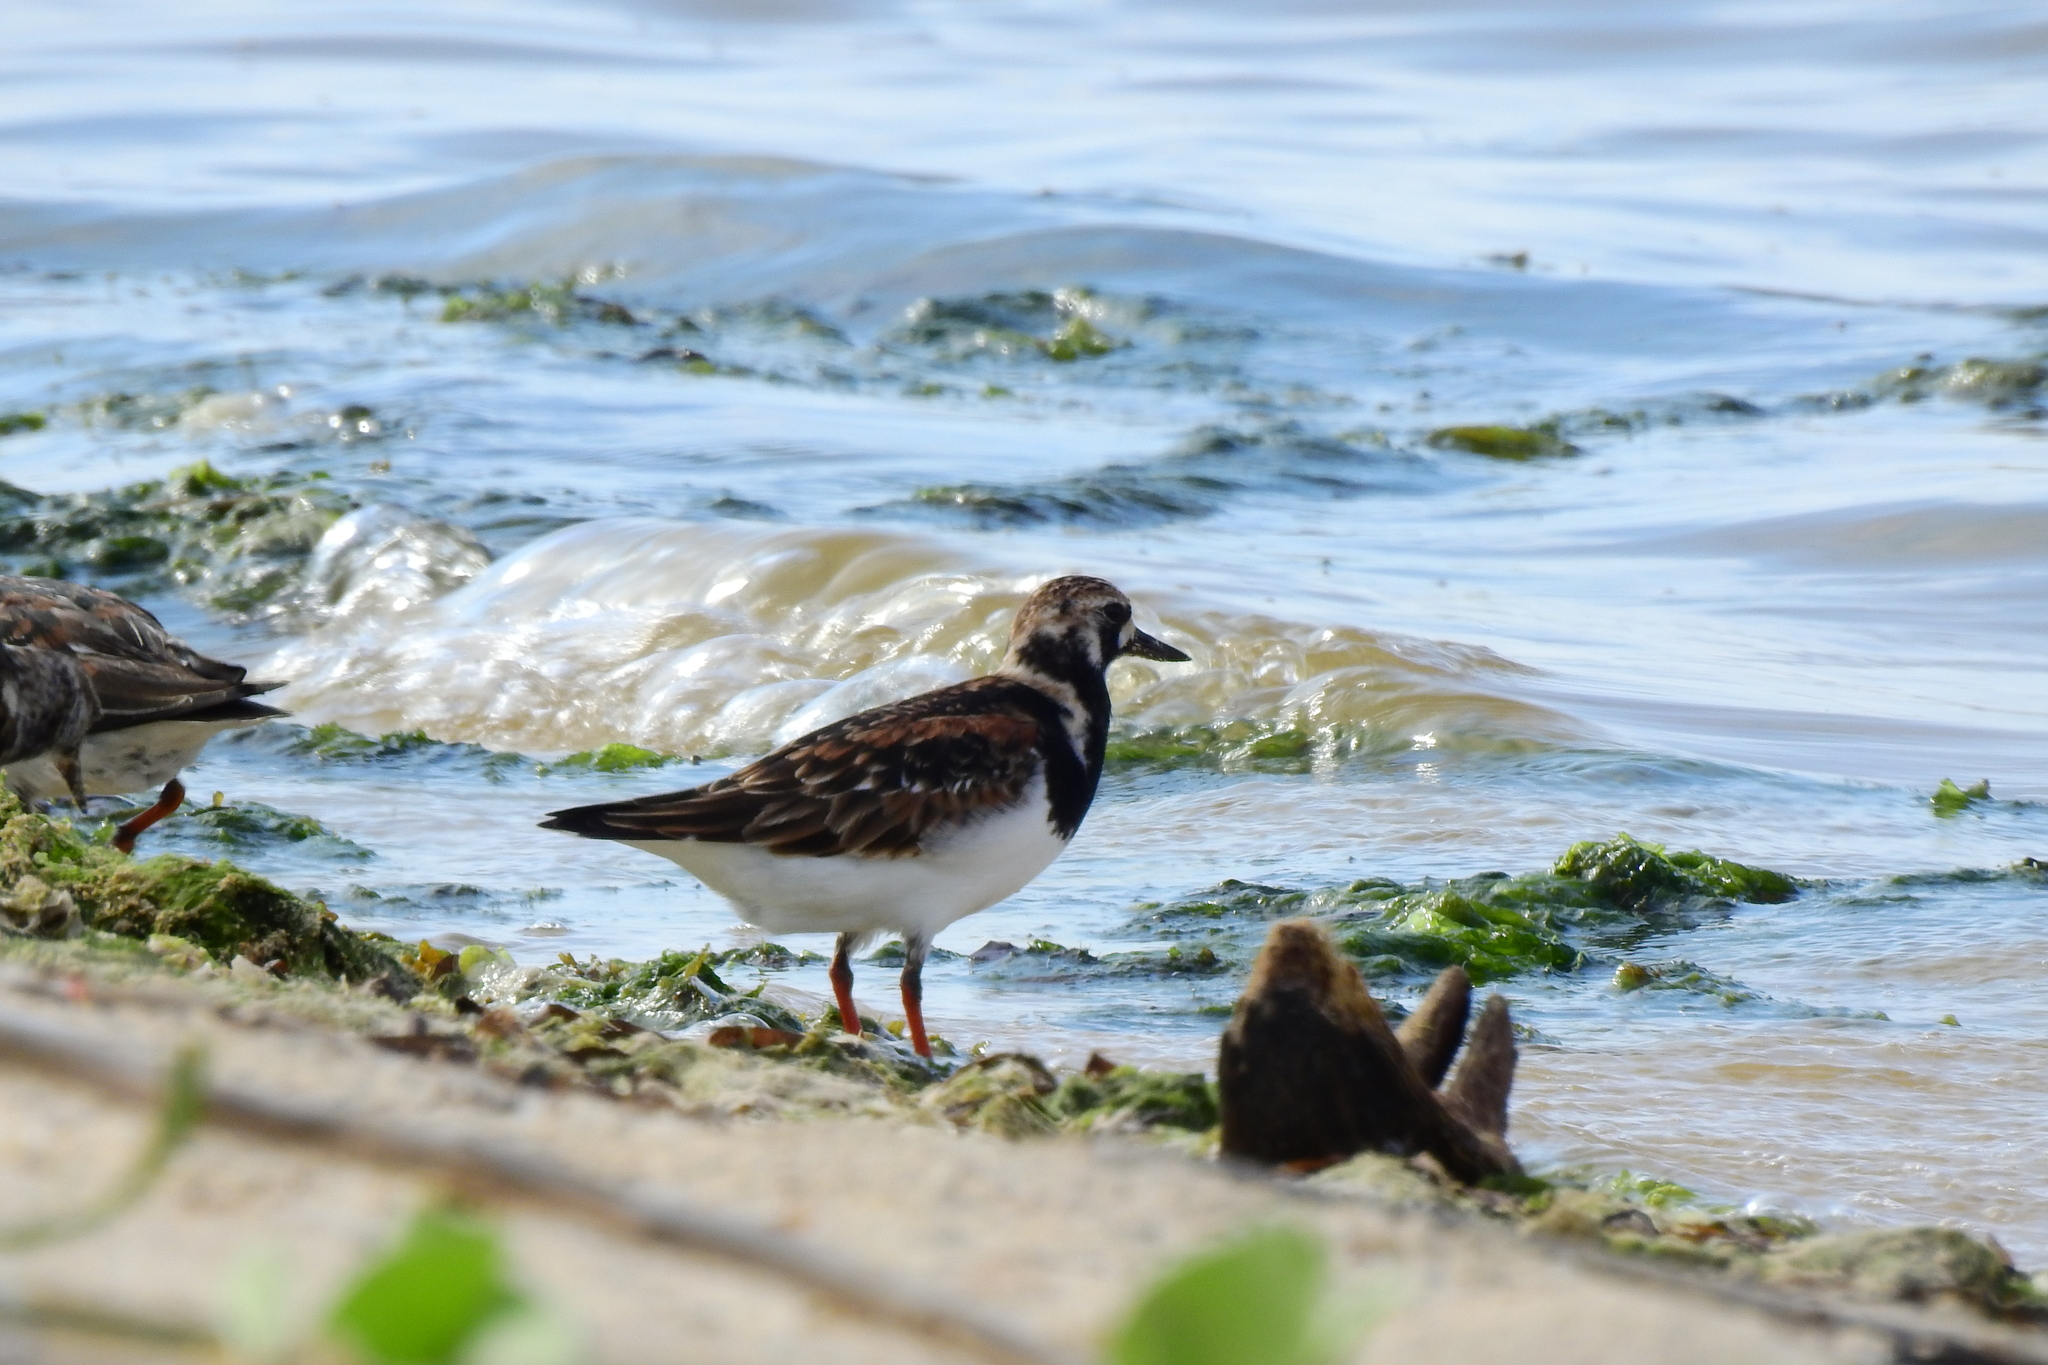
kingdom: Animalia
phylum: Chordata
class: Aves
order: Charadriiformes
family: Scolopacidae
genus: Arenaria
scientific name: Arenaria interpres
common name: Ruddy turnstone
